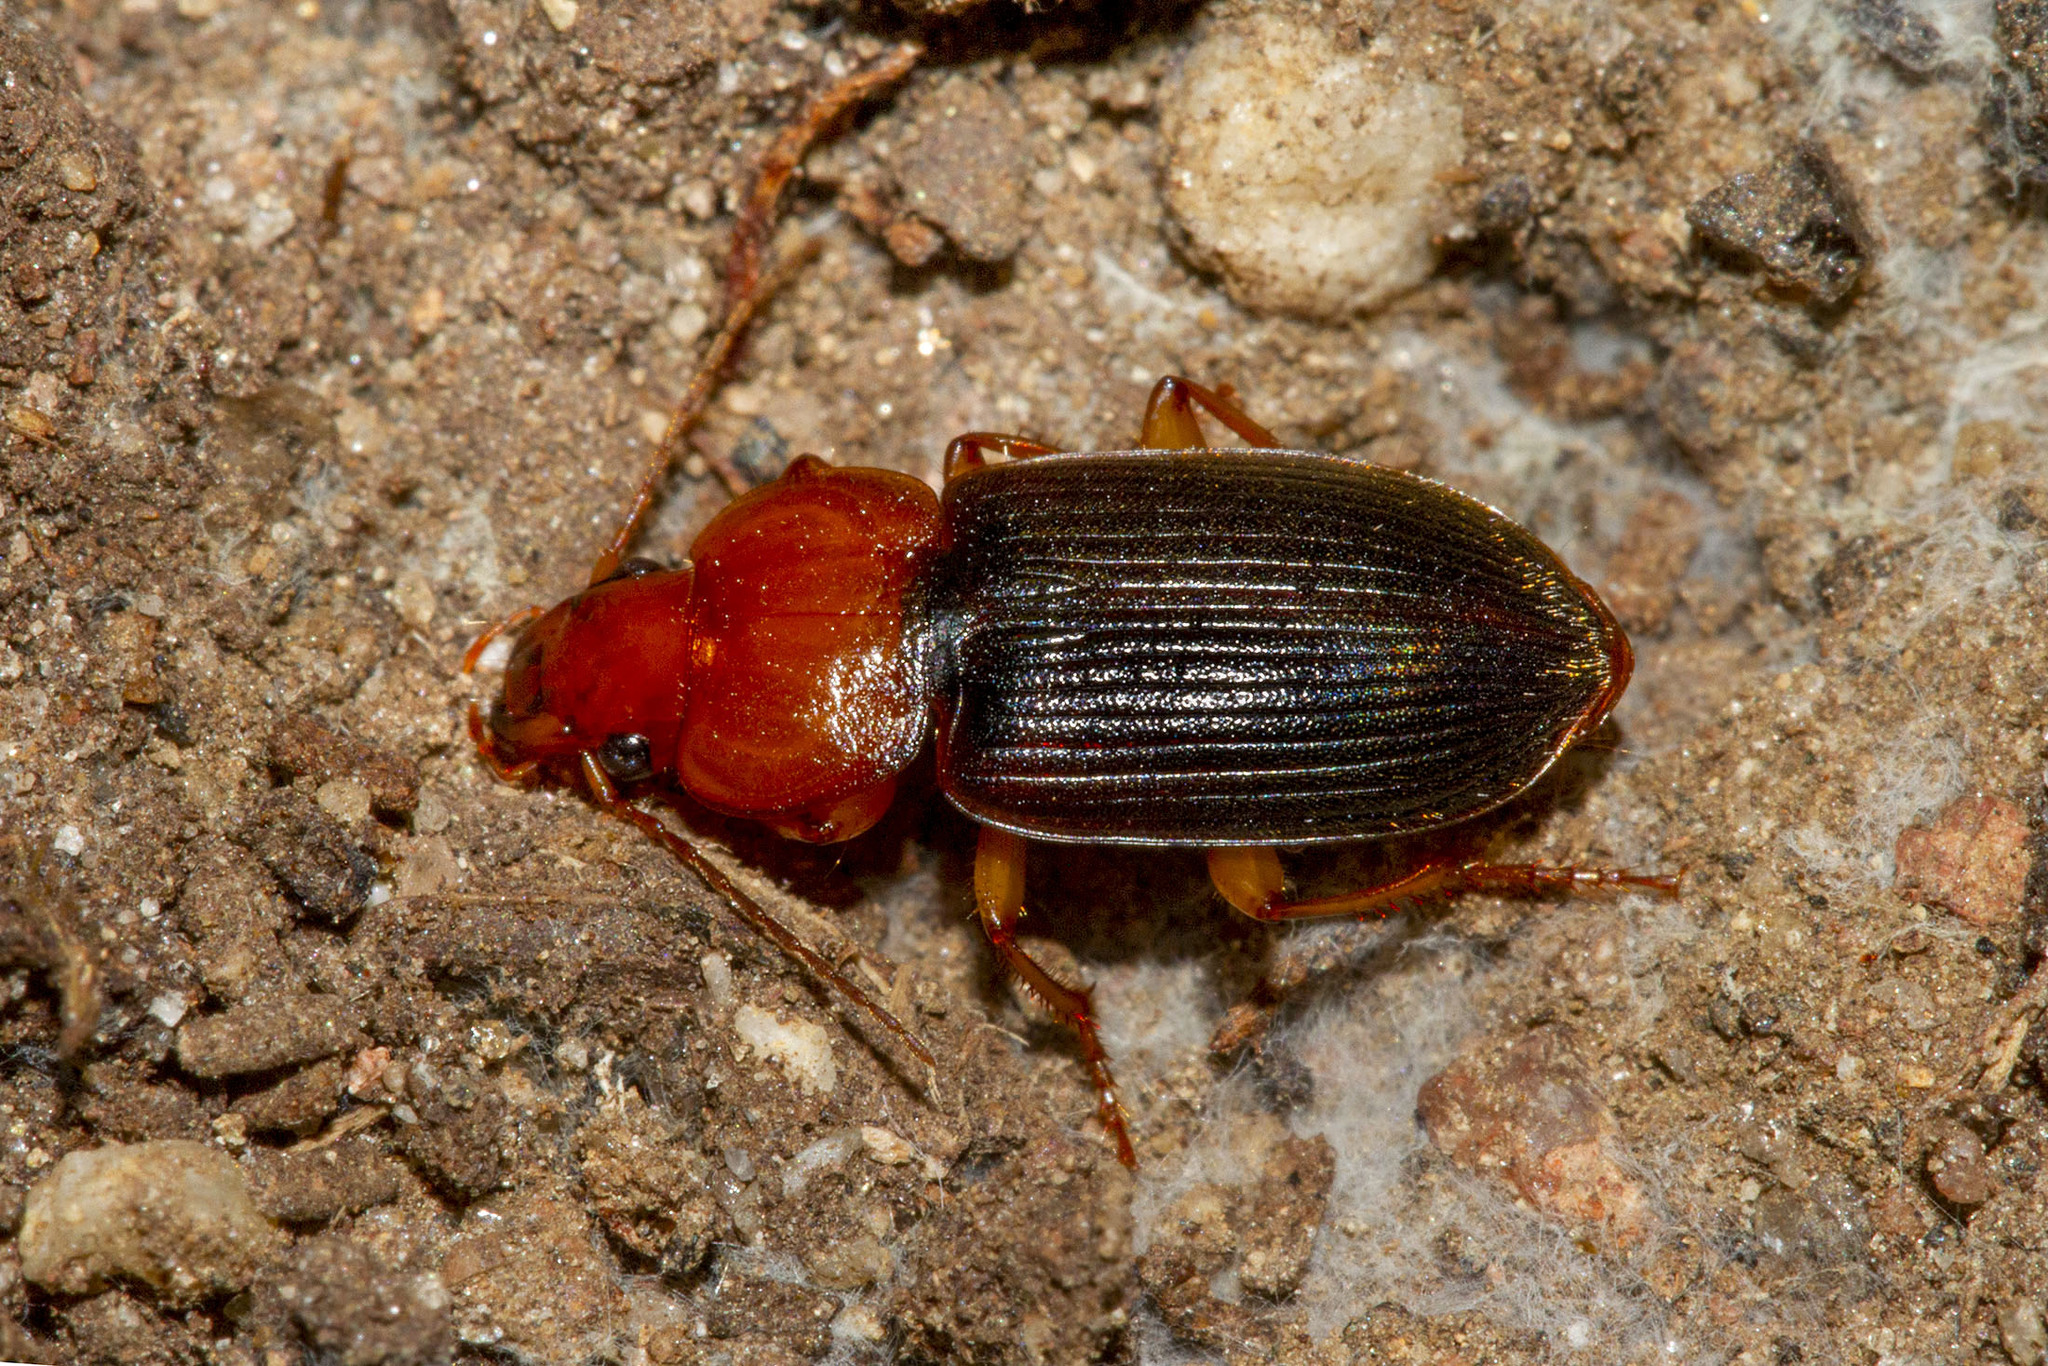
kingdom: Animalia
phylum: Arthropoda
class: Insecta
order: Coleoptera
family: Carabidae
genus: Amphasia
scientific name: Amphasia interstitialis
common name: Red-headed ground beetle
